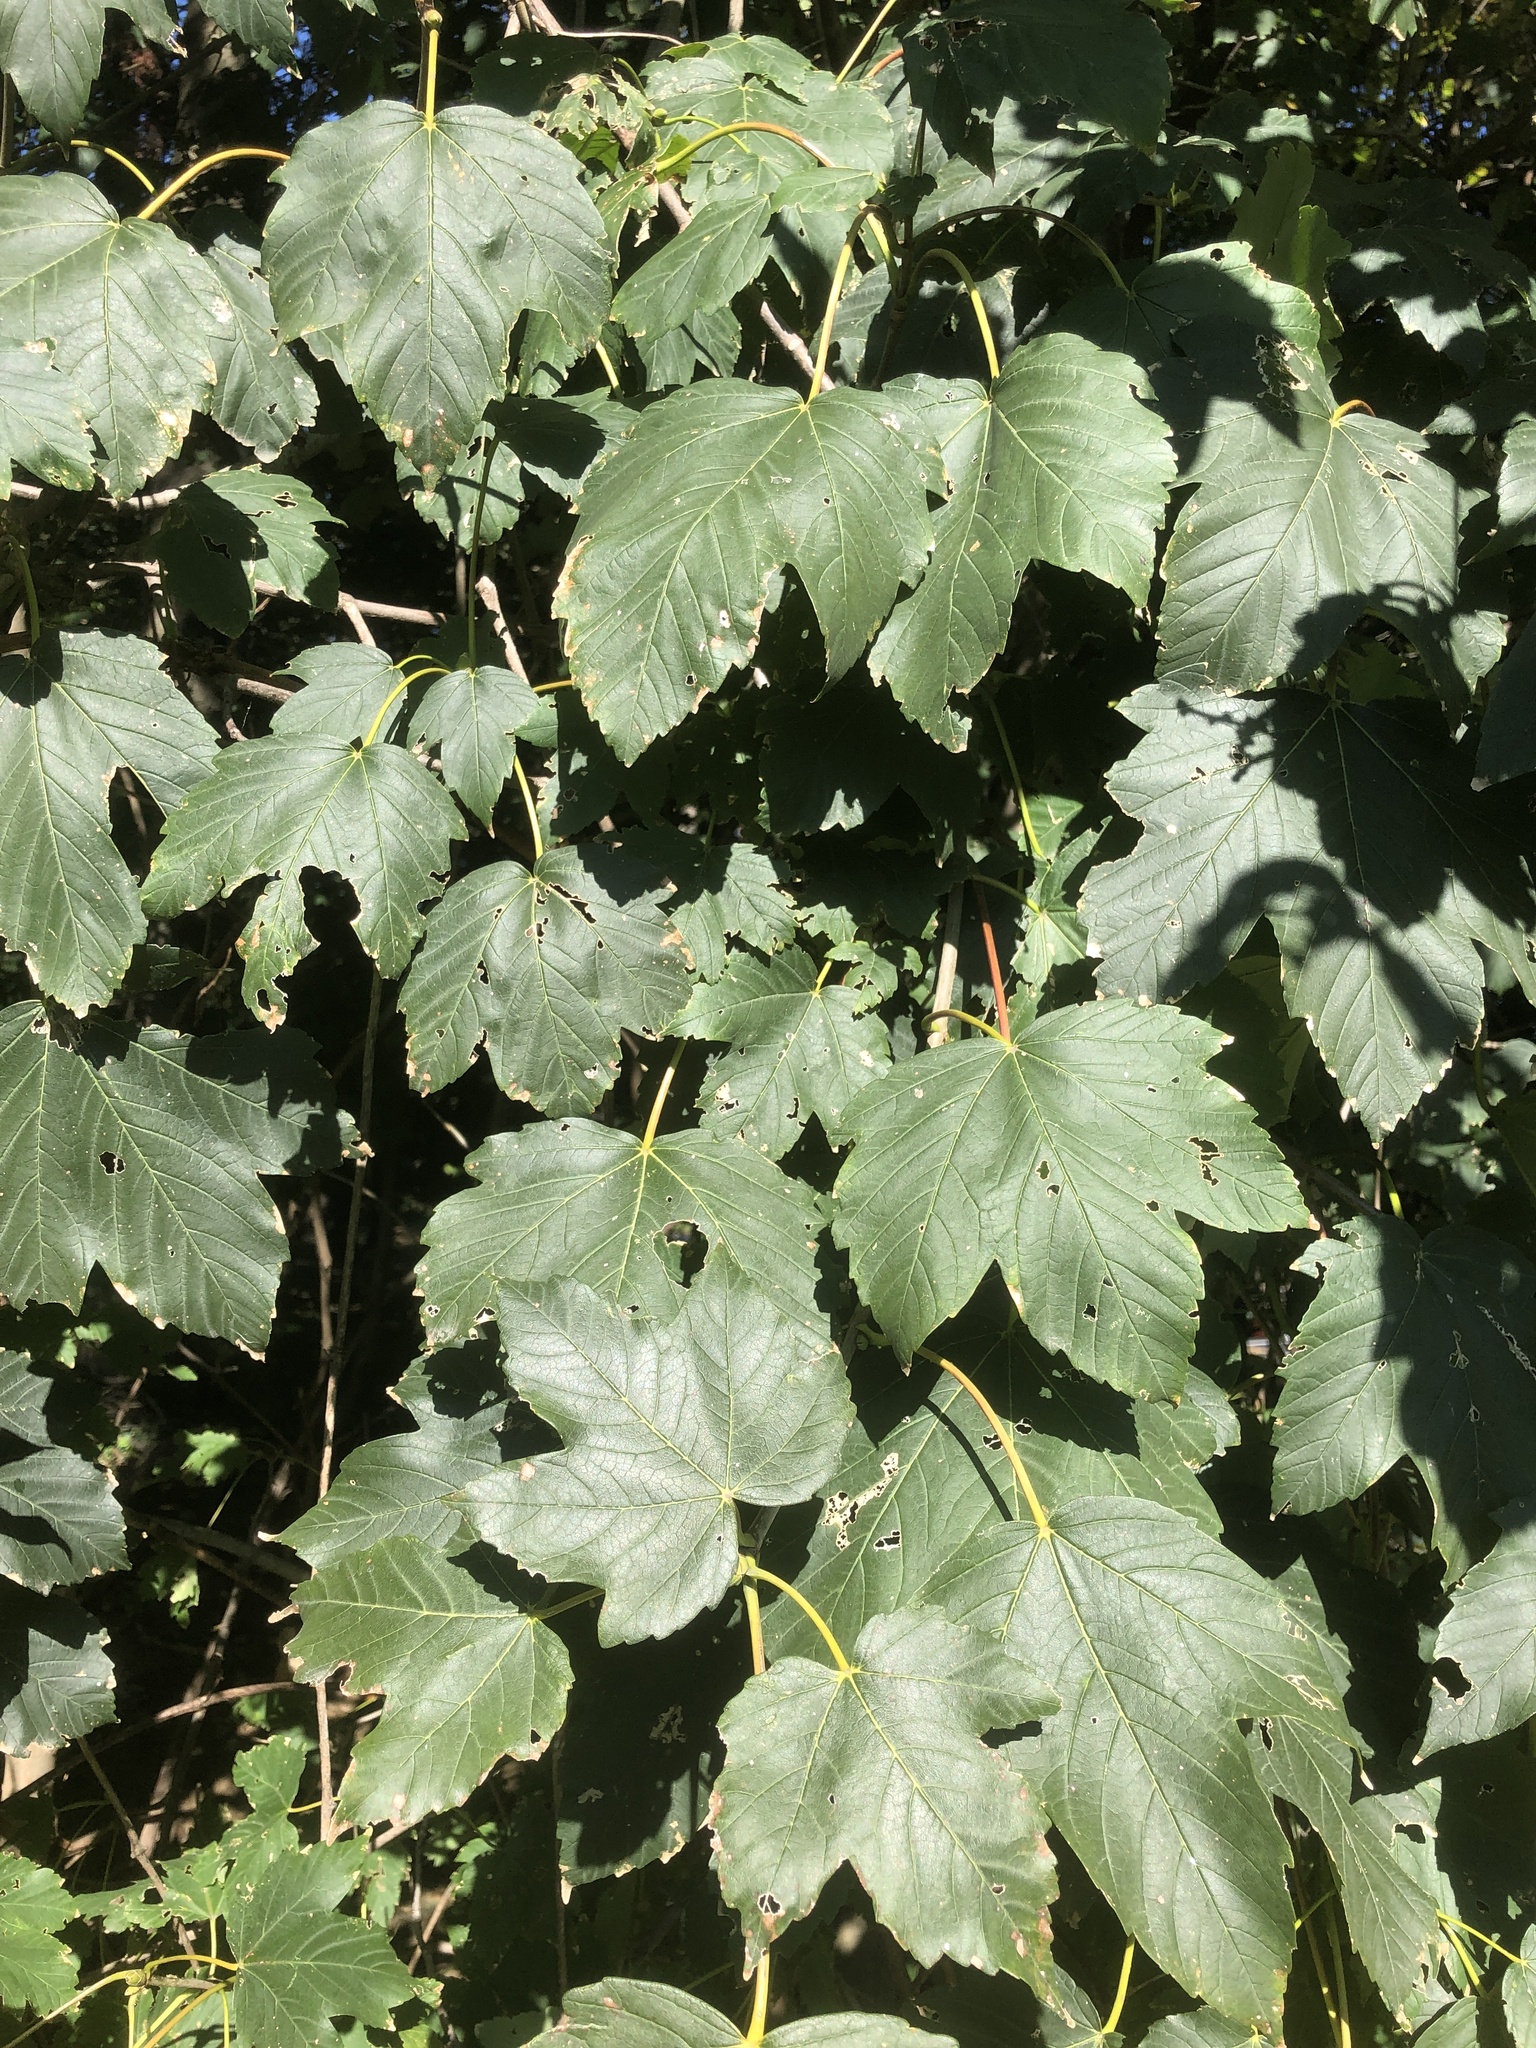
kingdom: Plantae
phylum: Tracheophyta
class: Magnoliopsida
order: Sapindales
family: Sapindaceae
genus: Acer
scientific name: Acer pseudoplatanus
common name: Sycamore
